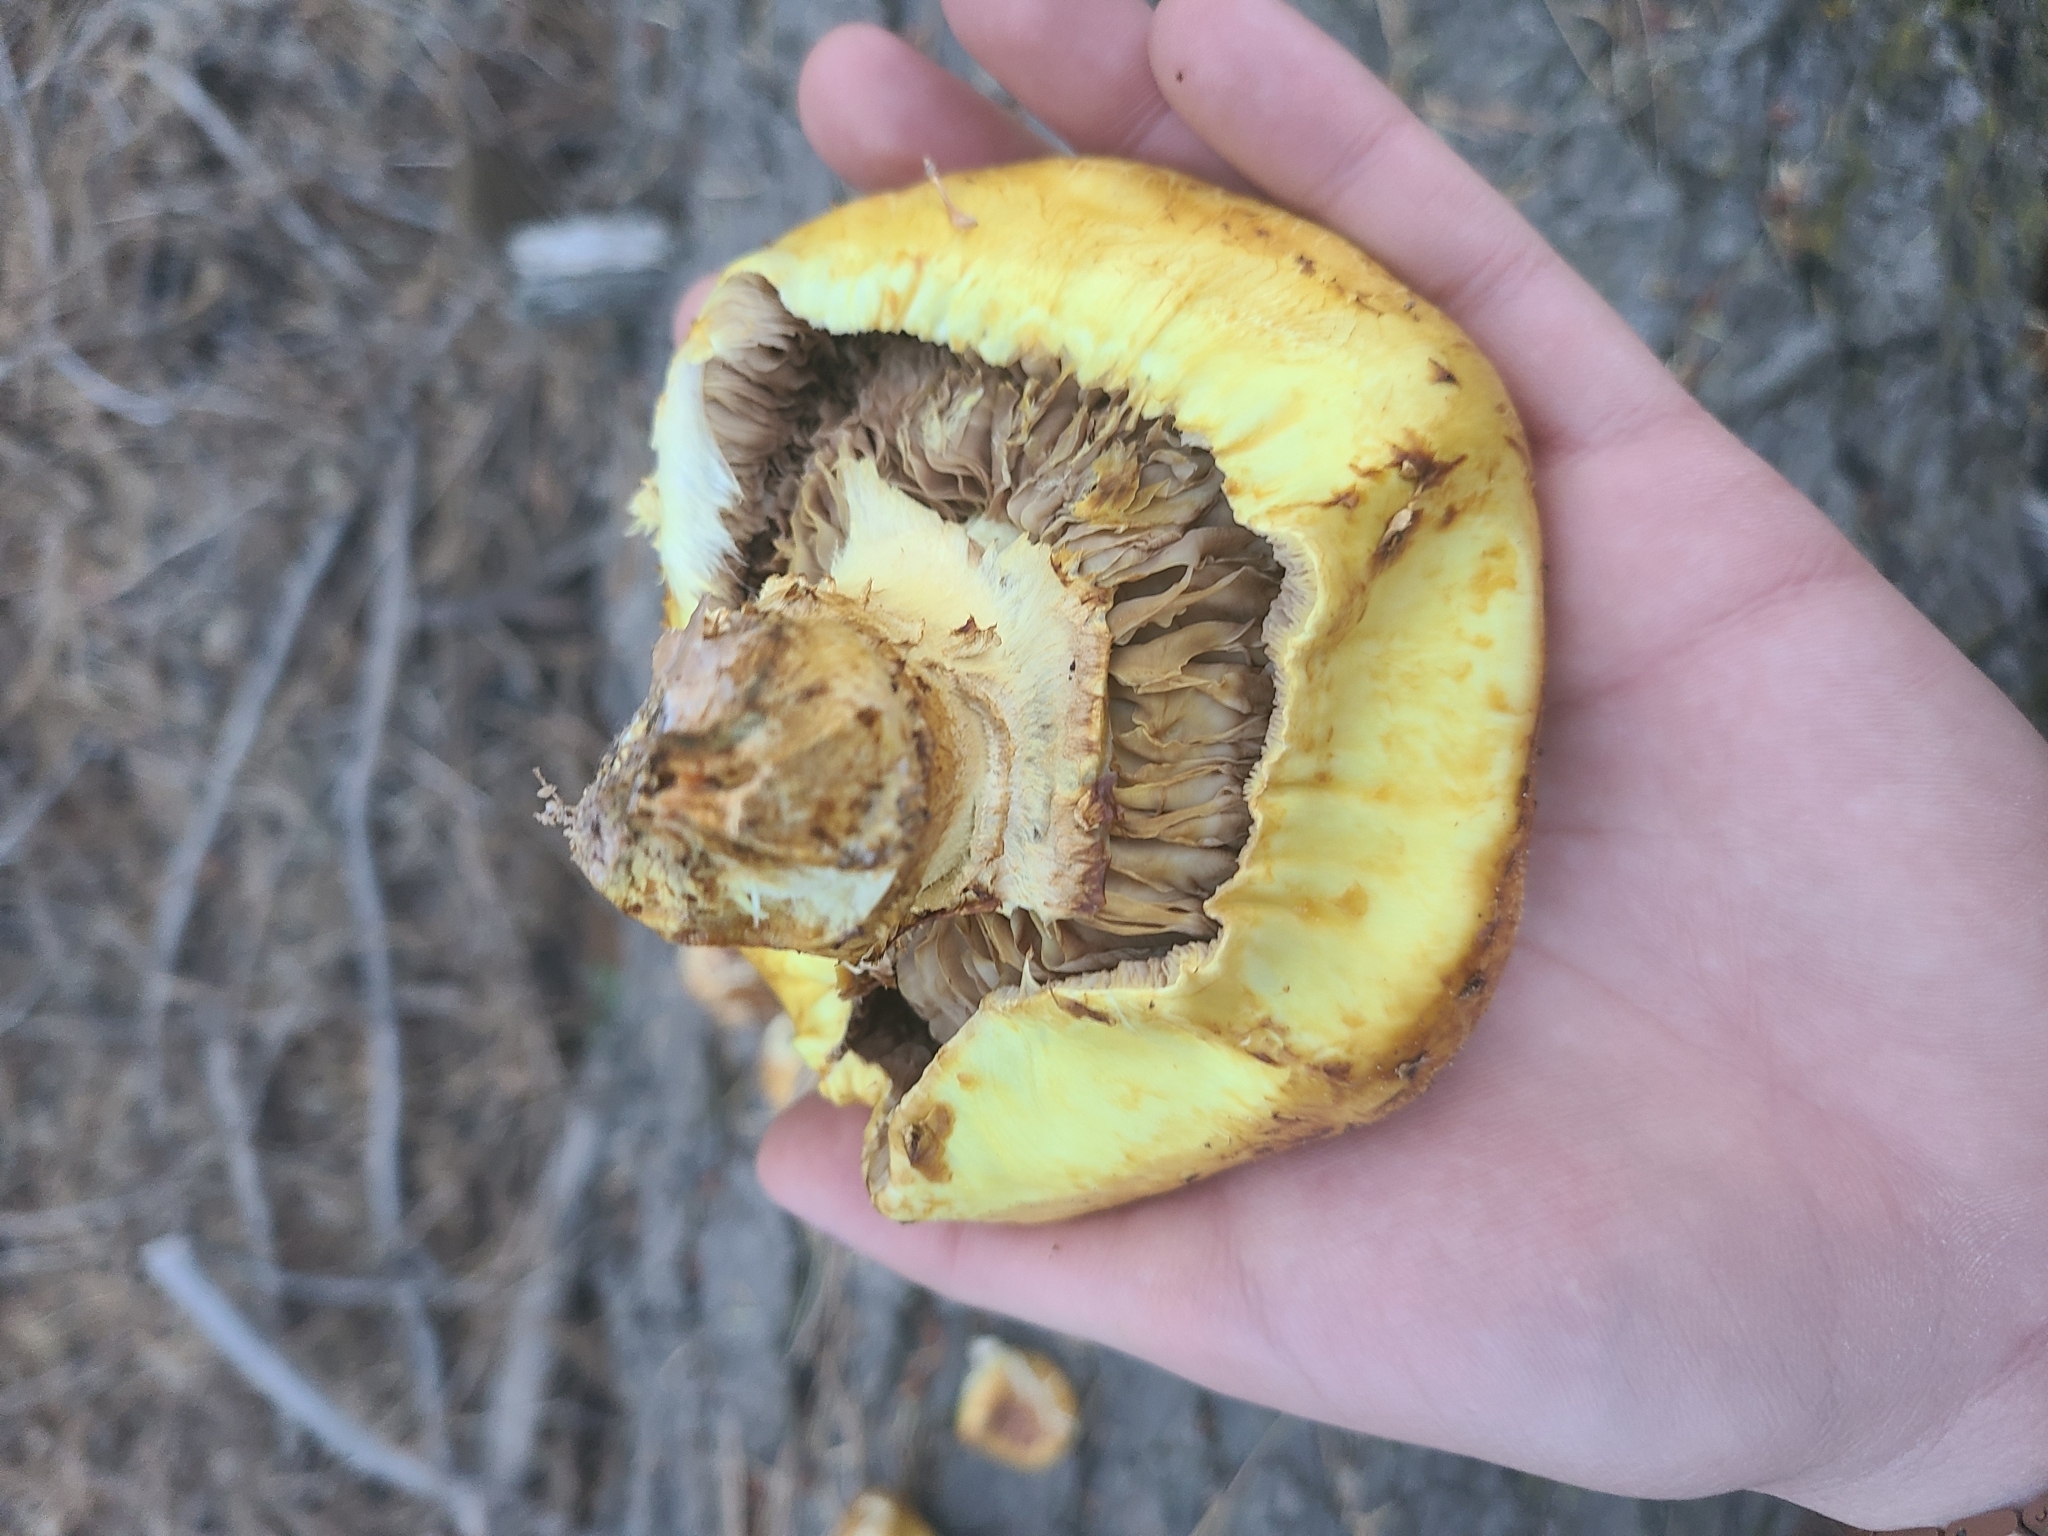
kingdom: Fungi
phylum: Basidiomycota
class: Agaricomycetes
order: Agaricales
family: Strophariaceae
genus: Pholiota
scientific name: Pholiota aurivella
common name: Golden scalycap
